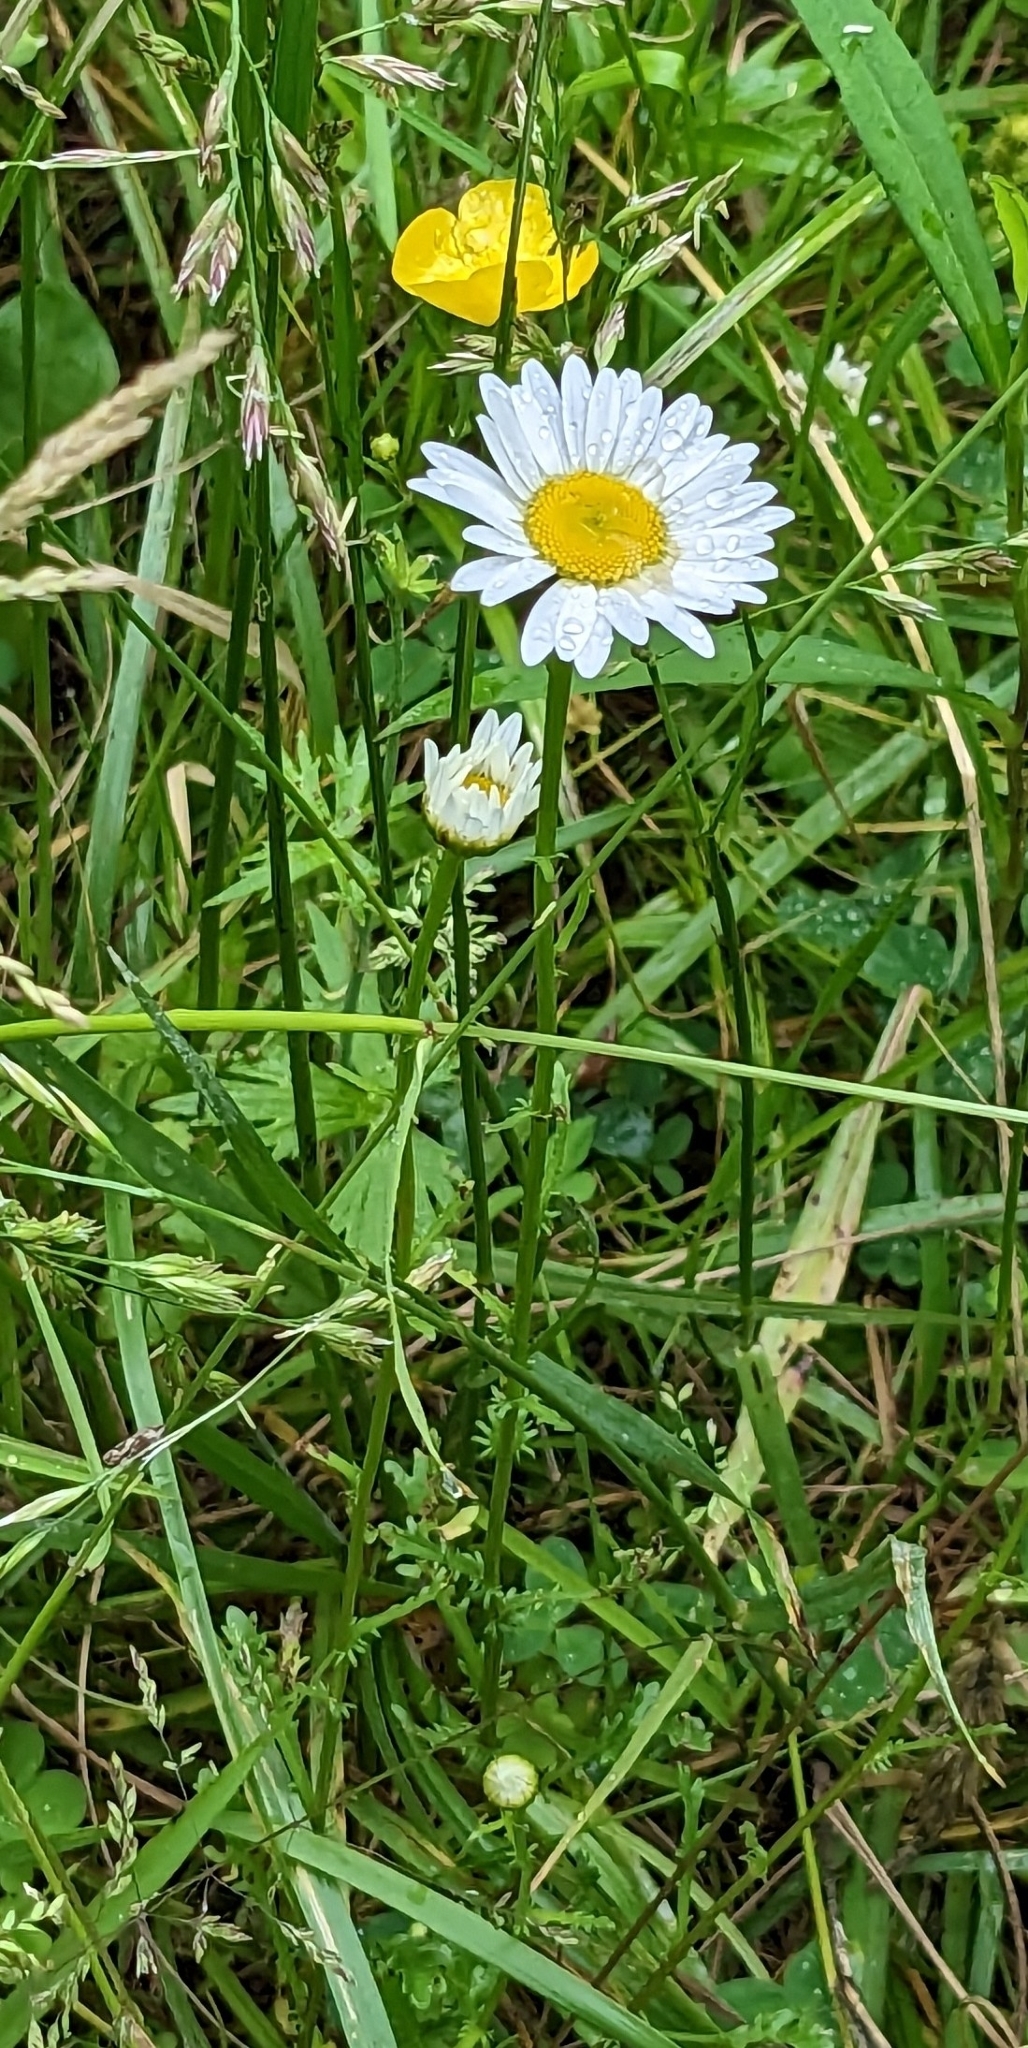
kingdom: Plantae
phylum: Tracheophyta
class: Magnoliopsida
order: Asterales
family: Asteraceae
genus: Leucanthemum
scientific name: Leucanthemum vulgare
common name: Oxeye daisy
